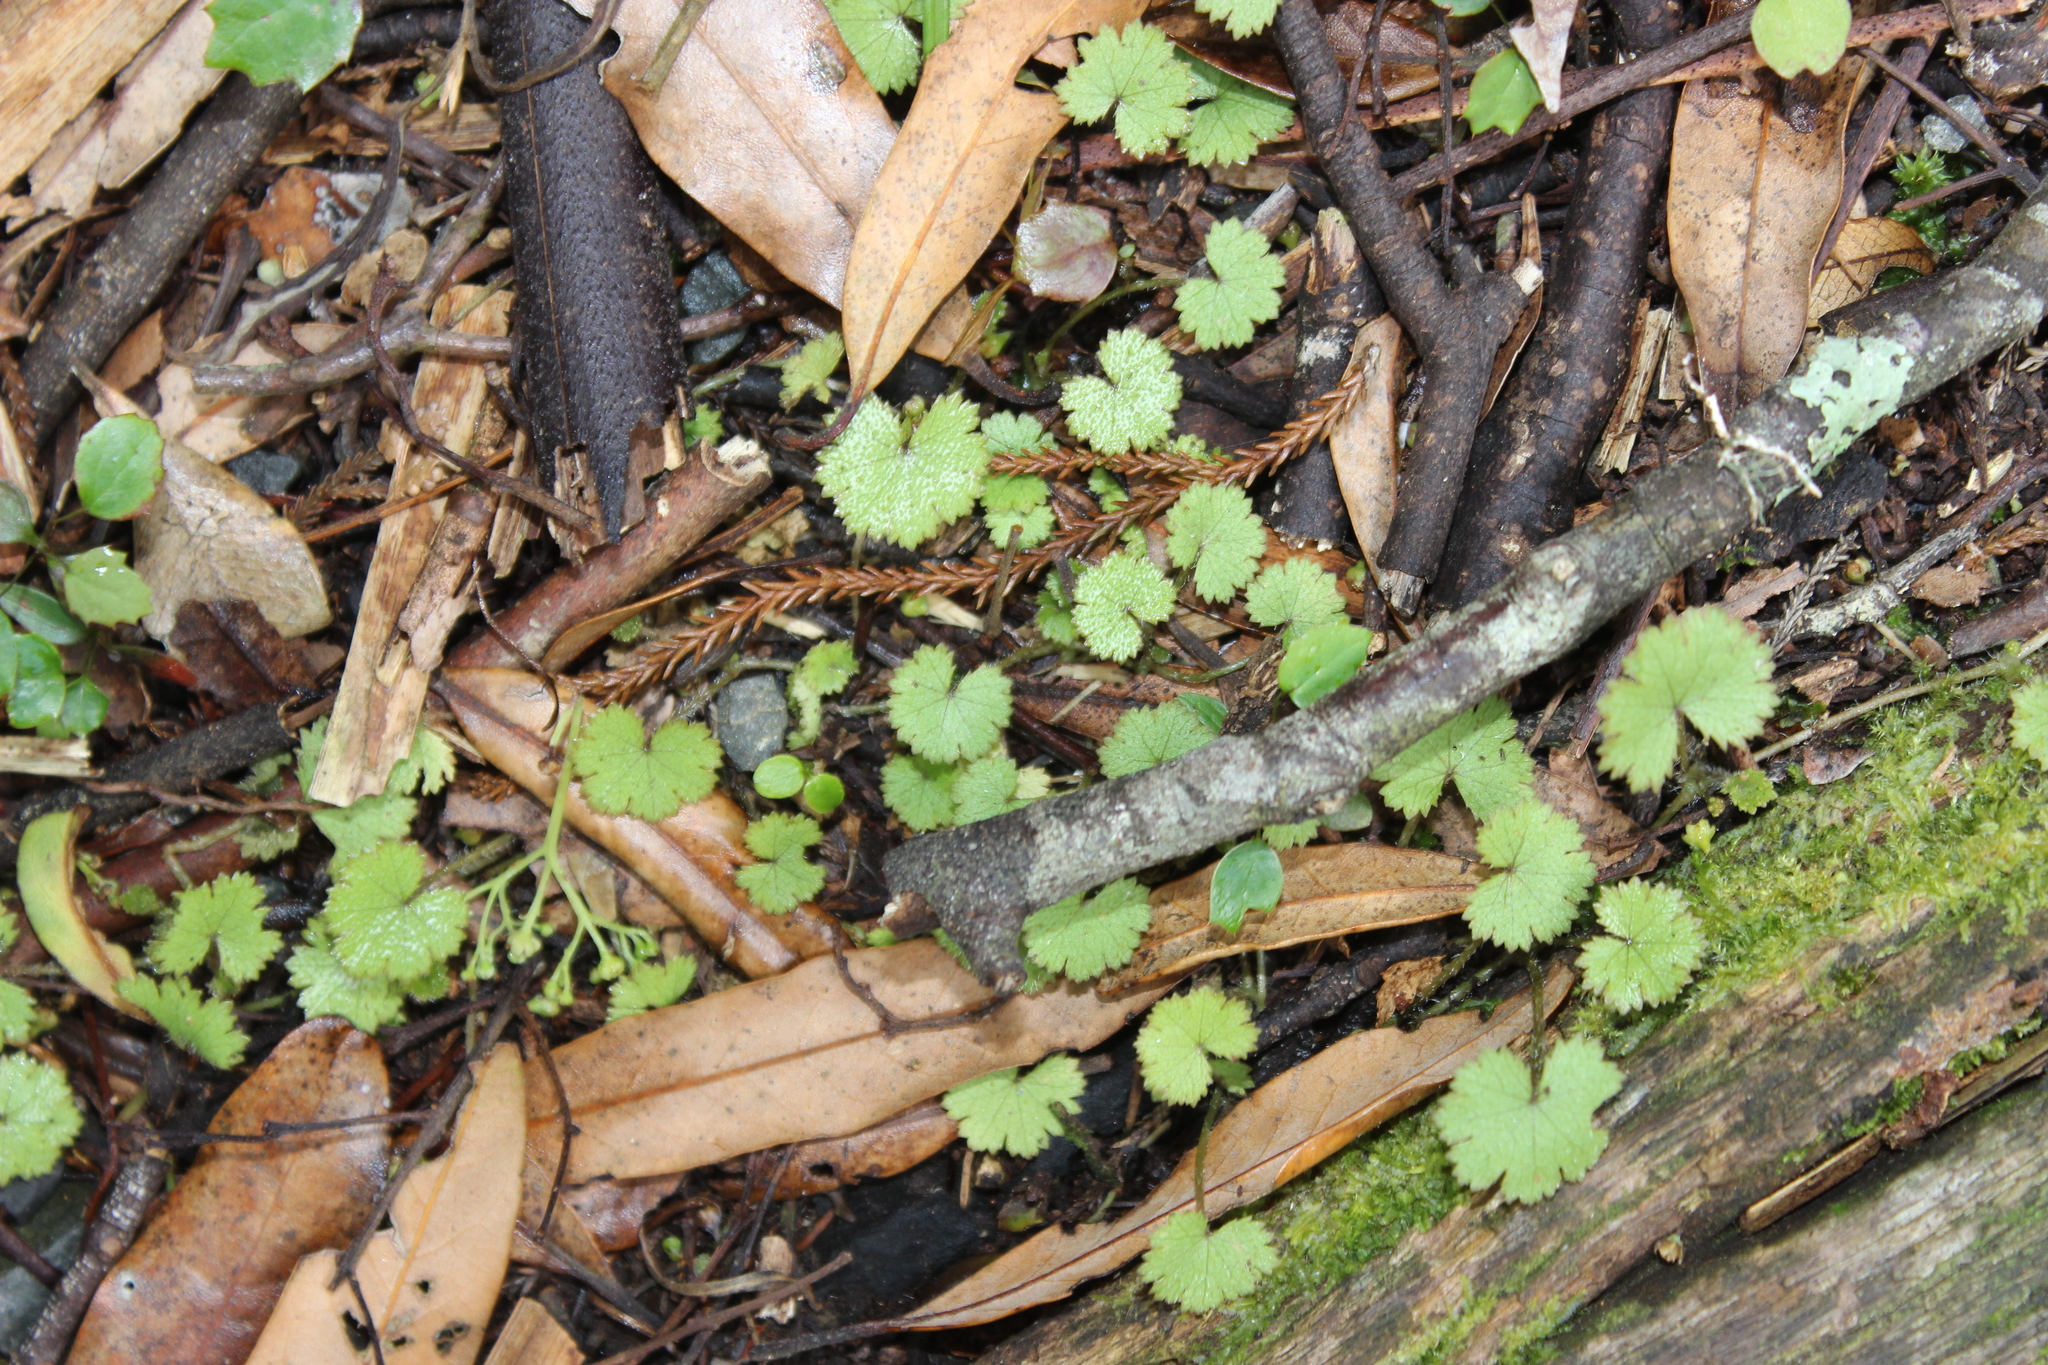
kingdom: Plantae
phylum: Tracheophyta
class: Magnoliopsida
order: Apiales
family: Araliaceae
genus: Hydrocotyle
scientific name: Hydrocotyle moschata
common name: Hairy pennywort
